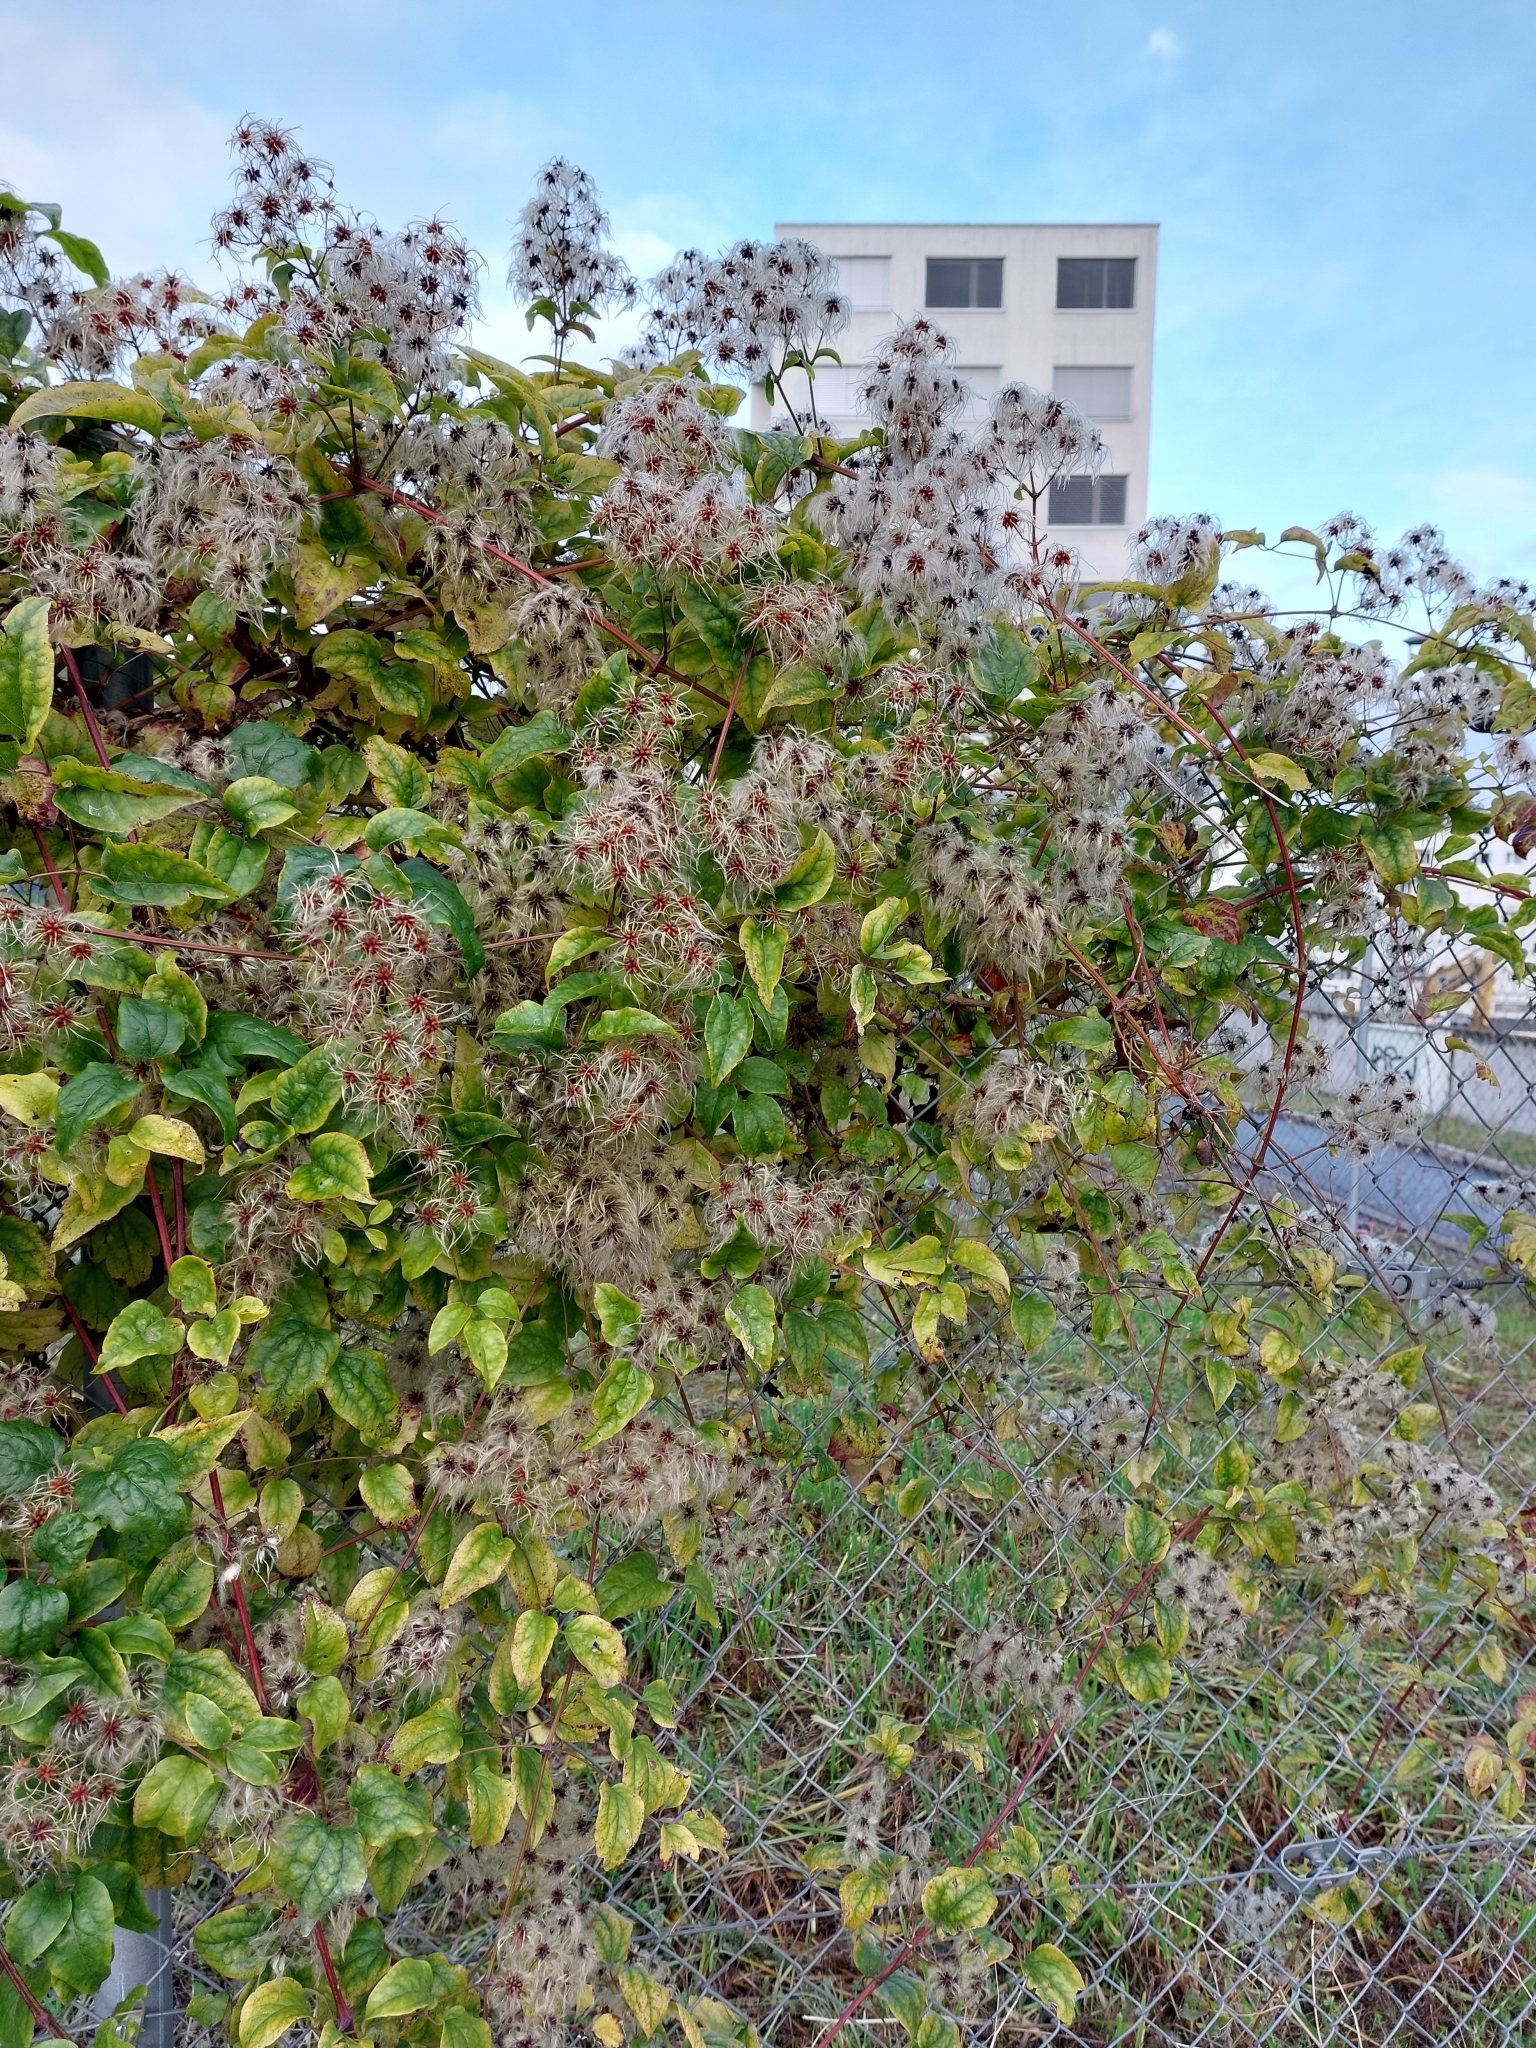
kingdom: Plantae
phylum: Tracheophyta
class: Magnoliopsida
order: Ranunculales
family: Ranunculaceae
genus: Clematis
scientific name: Clematis vitalba
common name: Evergreen clematis
